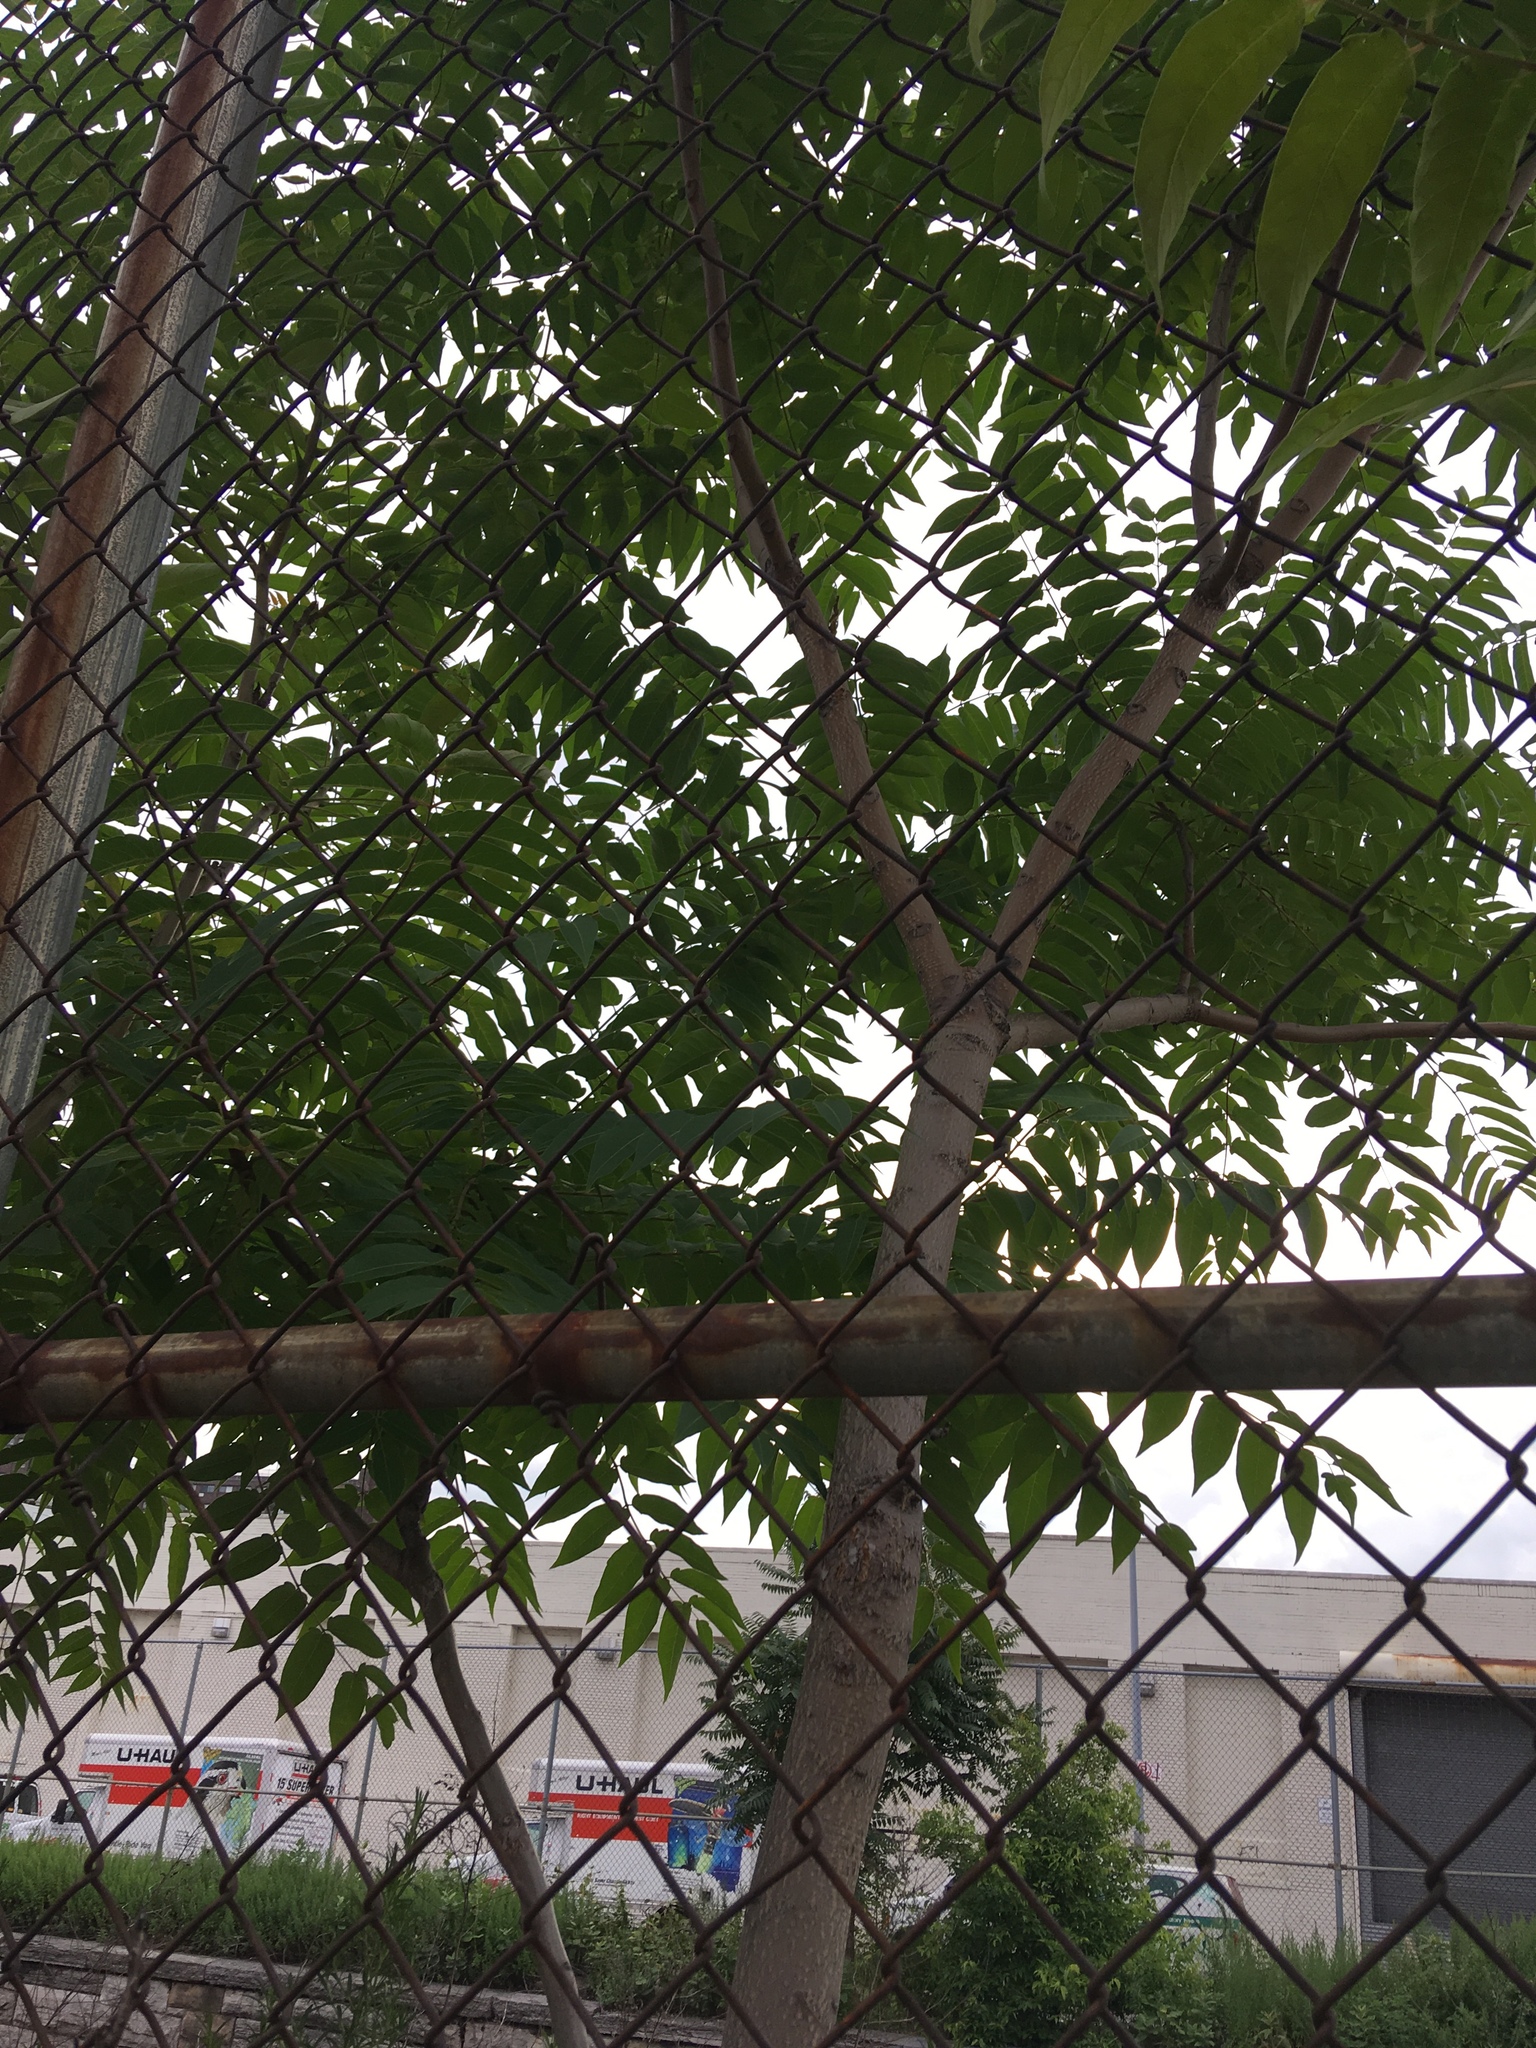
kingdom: Plantae
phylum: Tracheophyta
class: Magnoliopsida
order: Sapindales
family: Simaroubaceae
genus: Ailanthus
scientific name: Ailanthus altissima
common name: Tree-of-heaven
